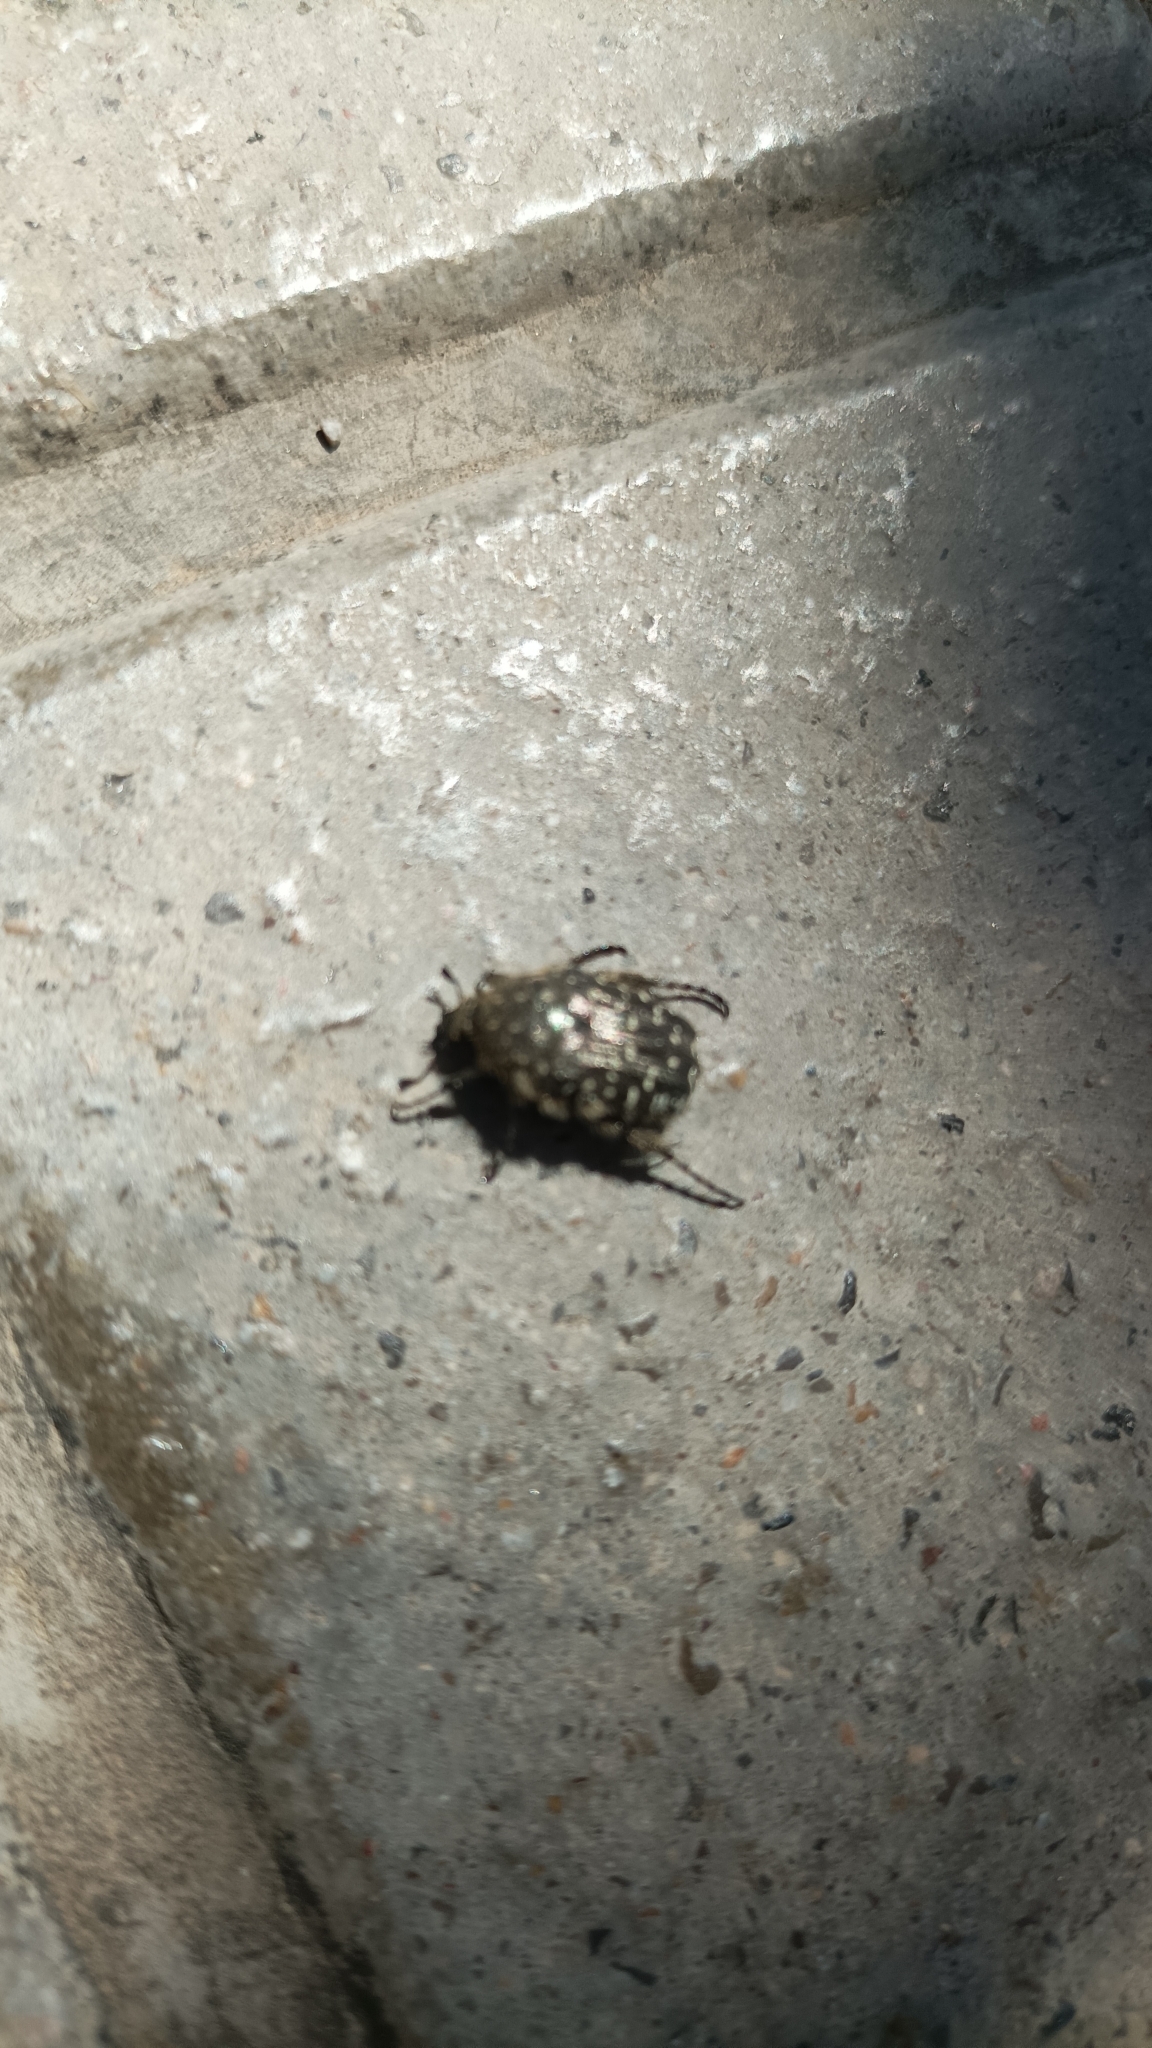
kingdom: Animalia
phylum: Arthropoda
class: Insecta
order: Coleoptera
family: Scarabaeidae
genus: Oxythyrea
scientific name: Oxythyrea funesta
